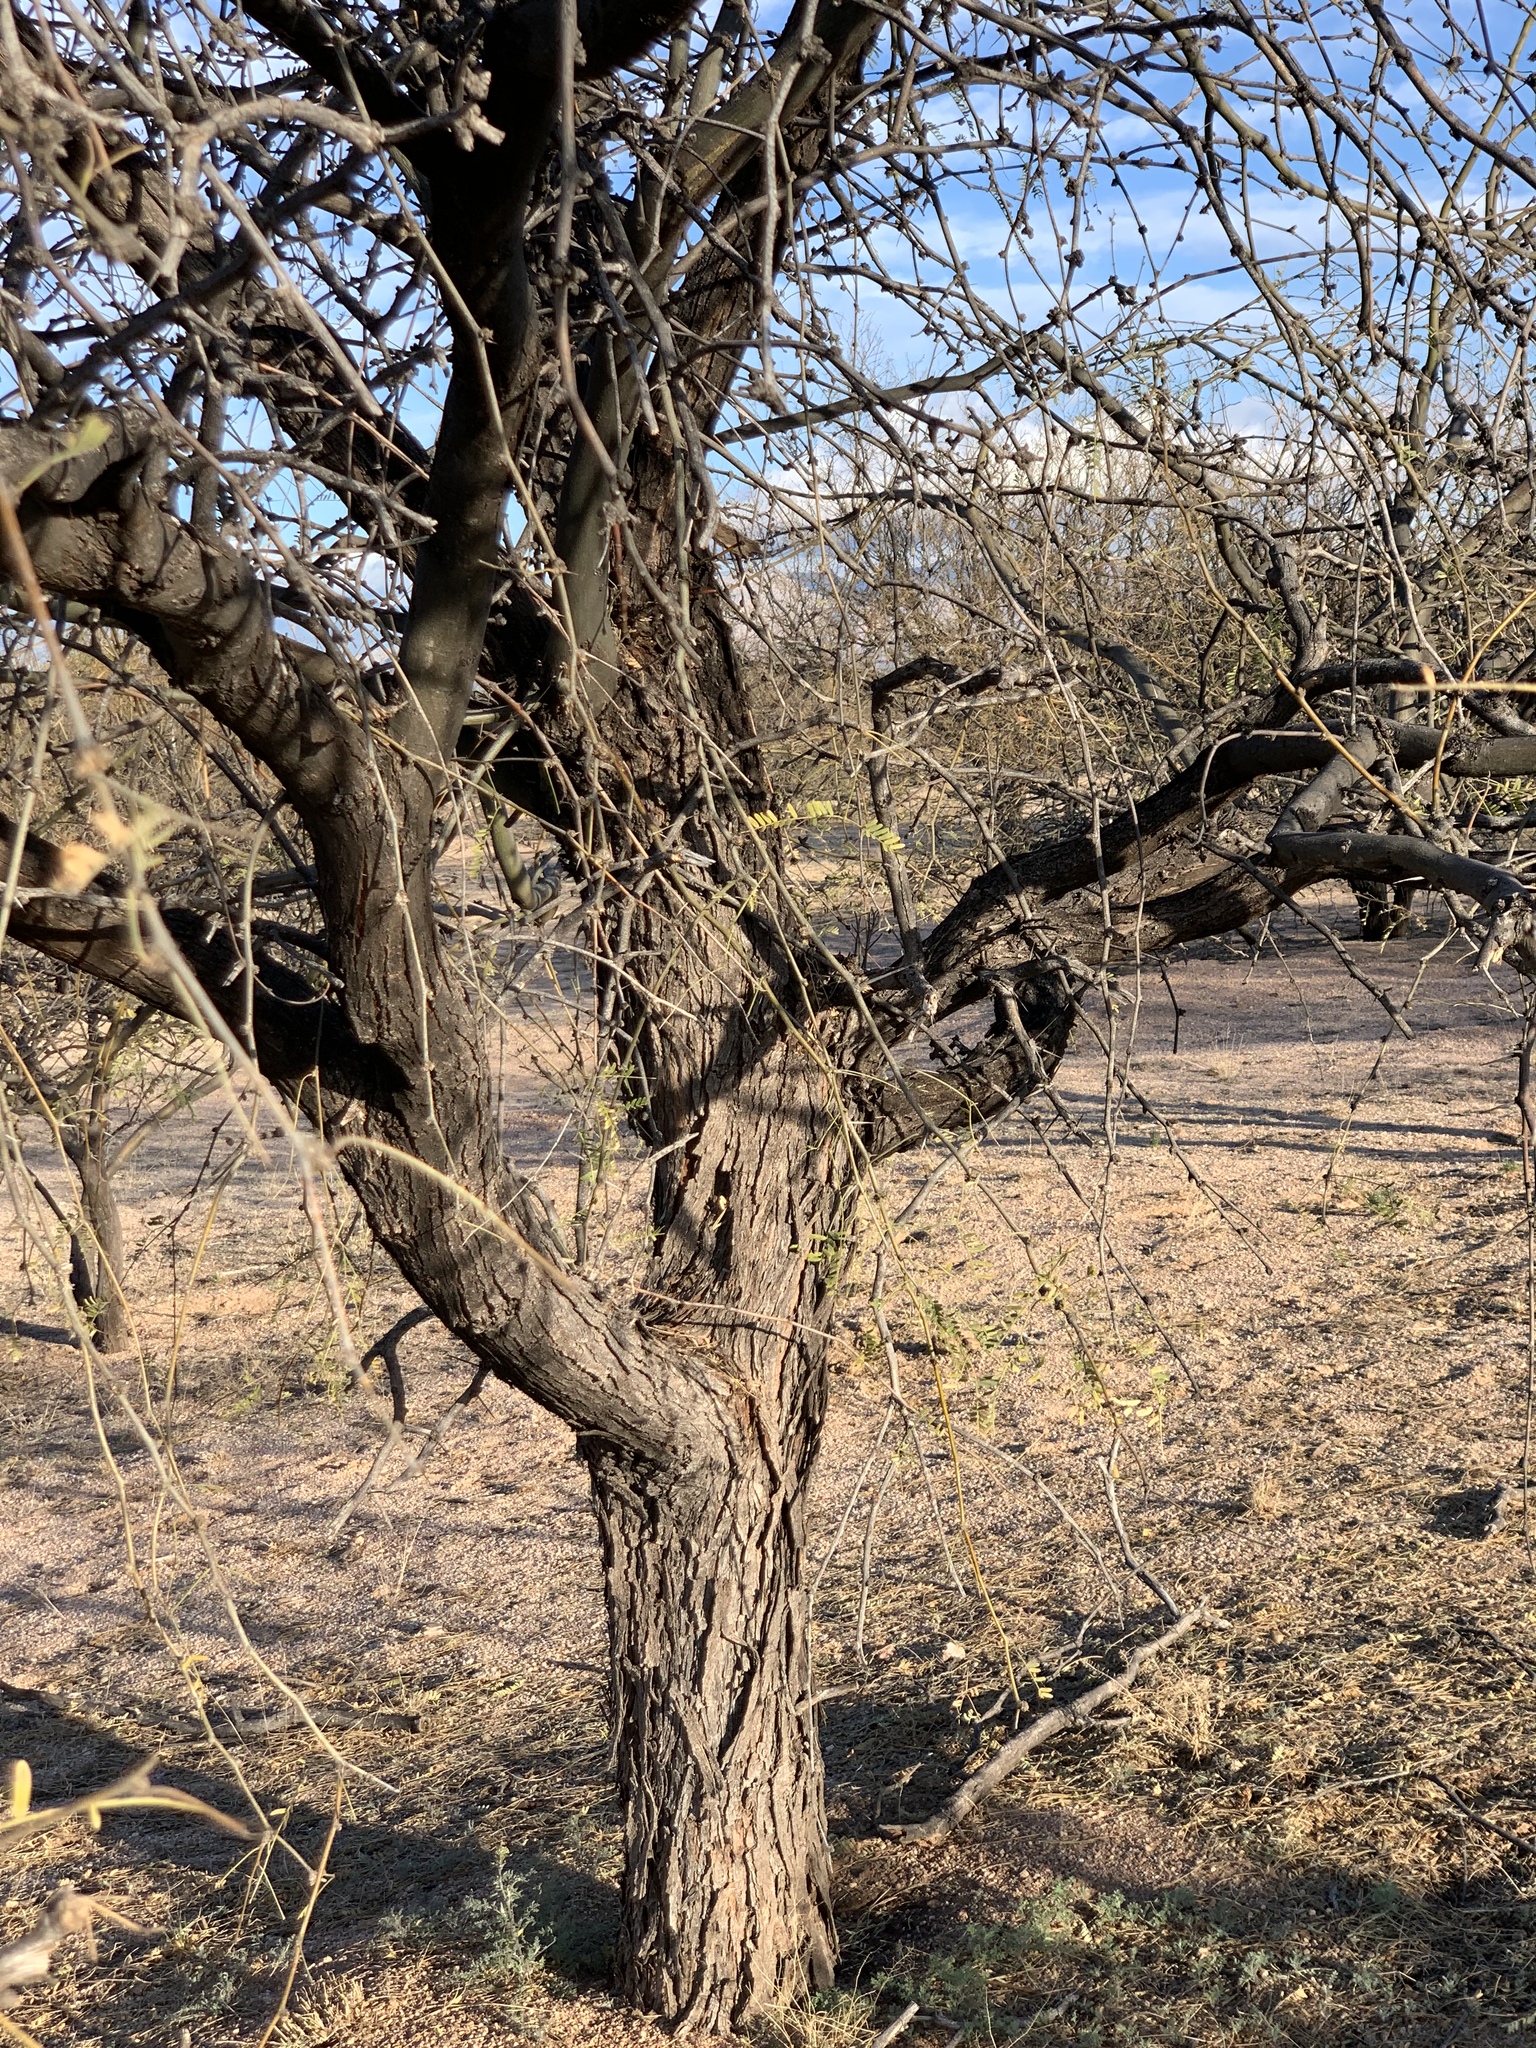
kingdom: Plantae
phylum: Tracheophyta
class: Magnoliopsida
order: Fabales
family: Fabaceae
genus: Prosopis
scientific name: Prosopis velutina
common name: Velvet mesquite
